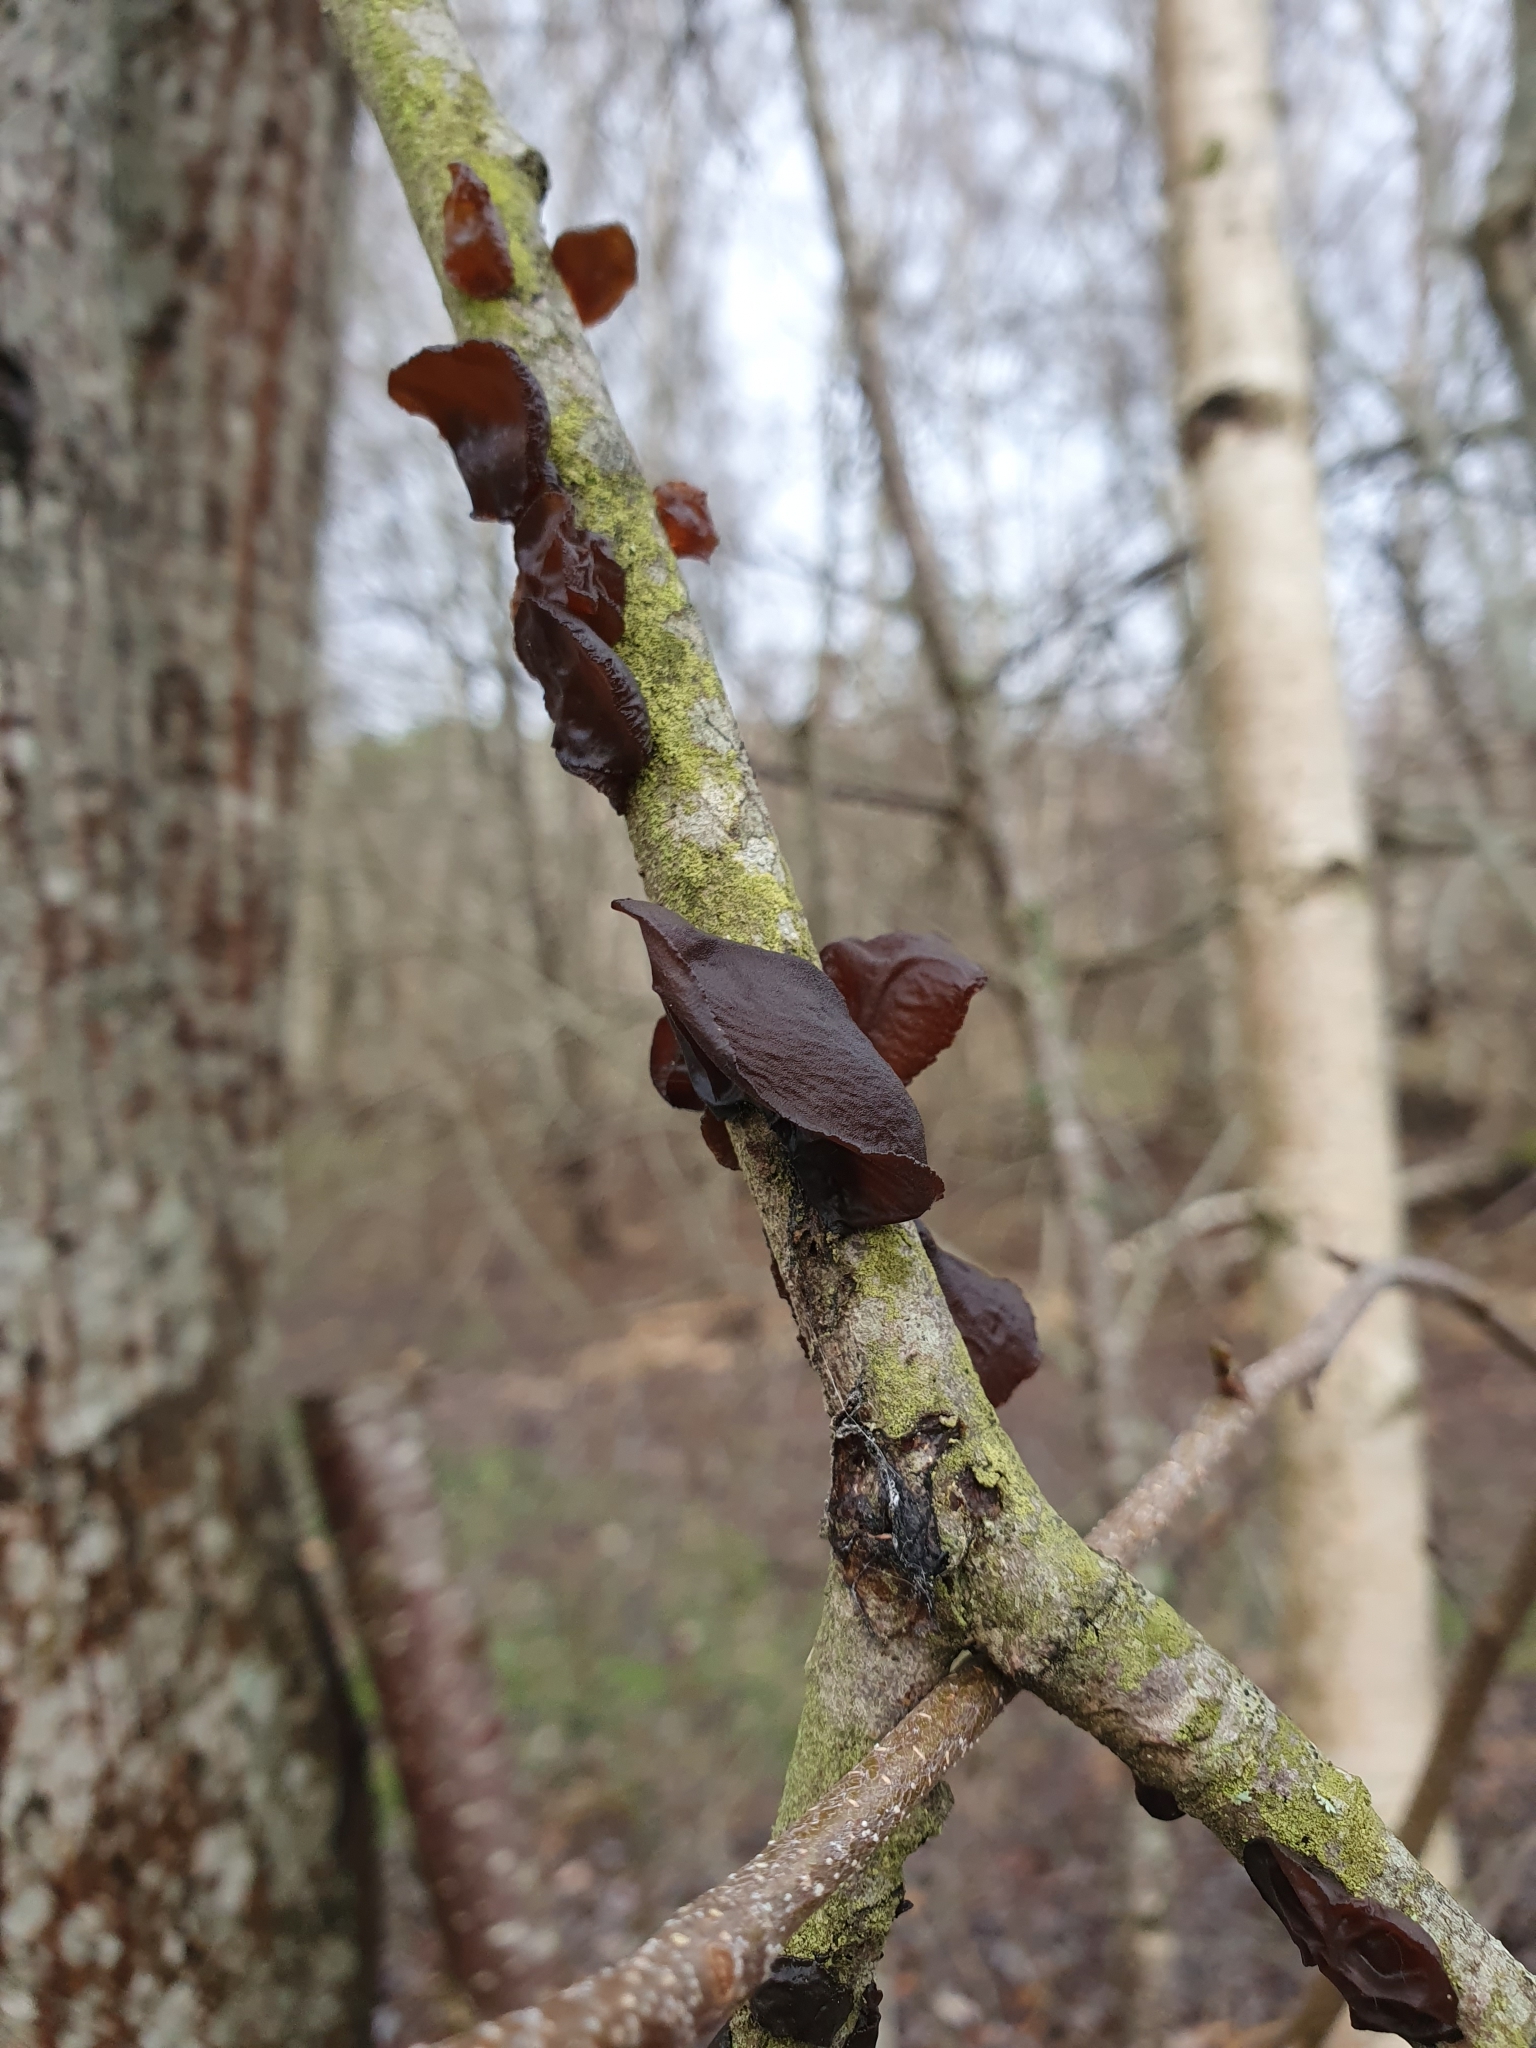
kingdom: Fungi
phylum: Basidiomycota
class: Agaricomycetes
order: Auriculariales
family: Auriculariaceae
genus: Exidia
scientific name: Exidia recisa
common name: Amber jelly
